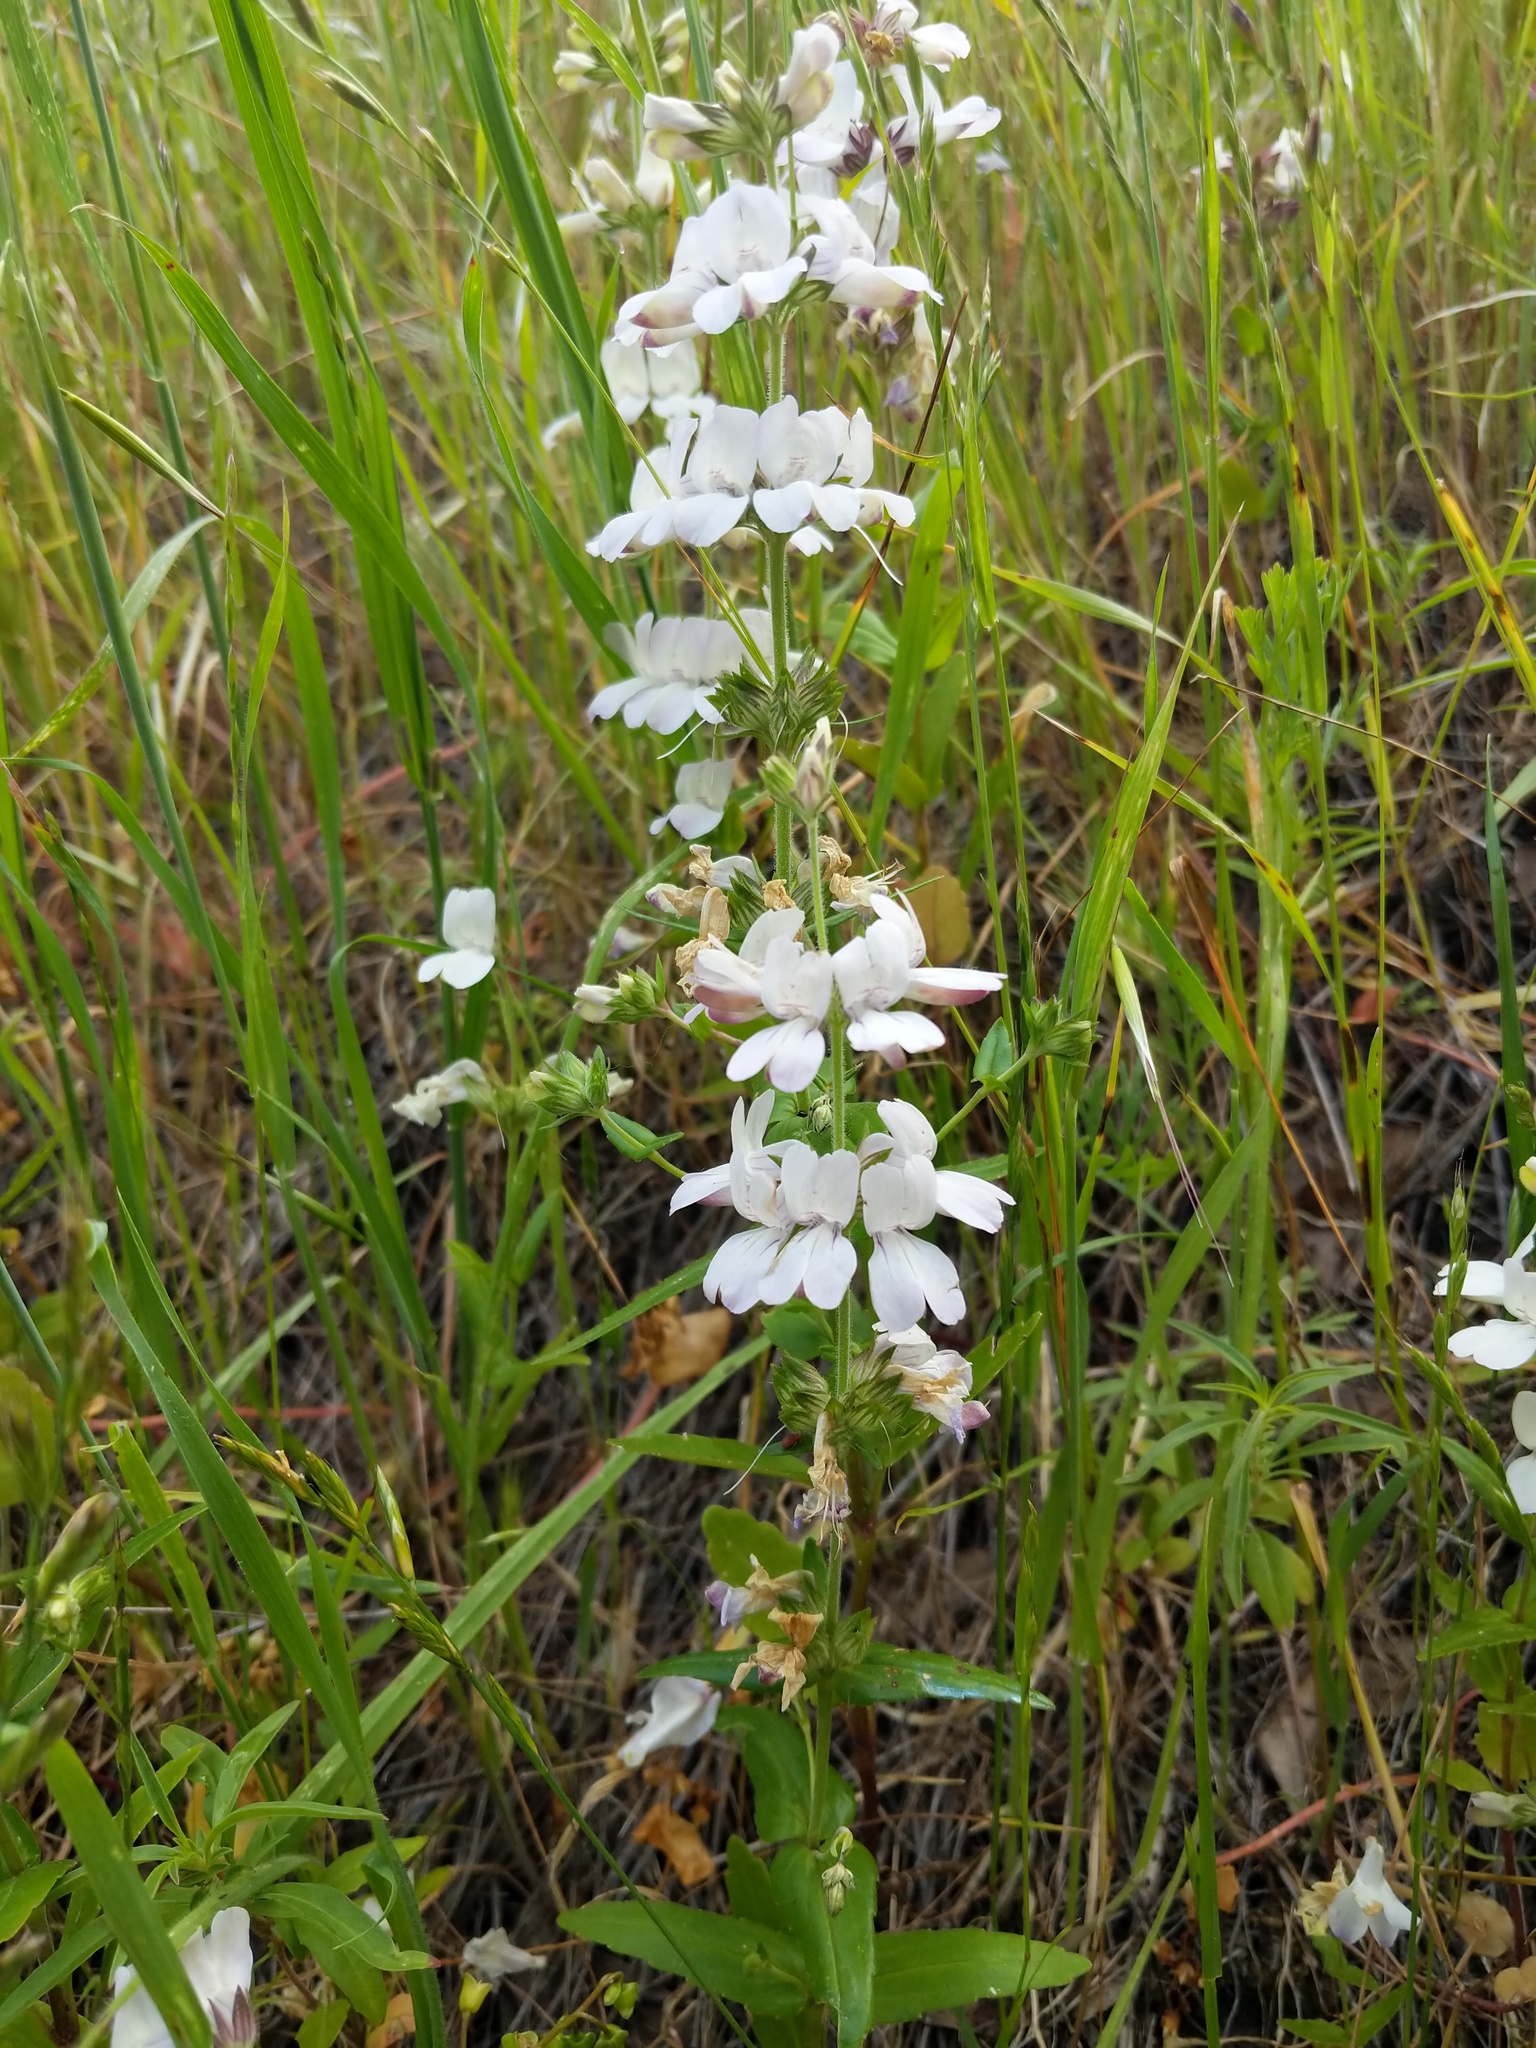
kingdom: Plantae
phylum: Tracheophyta
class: Magnoliopsida
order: Lamiales
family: Plantaginaceae
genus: Collinsia
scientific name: Collinsia heterophylla
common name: Chinese-houses
